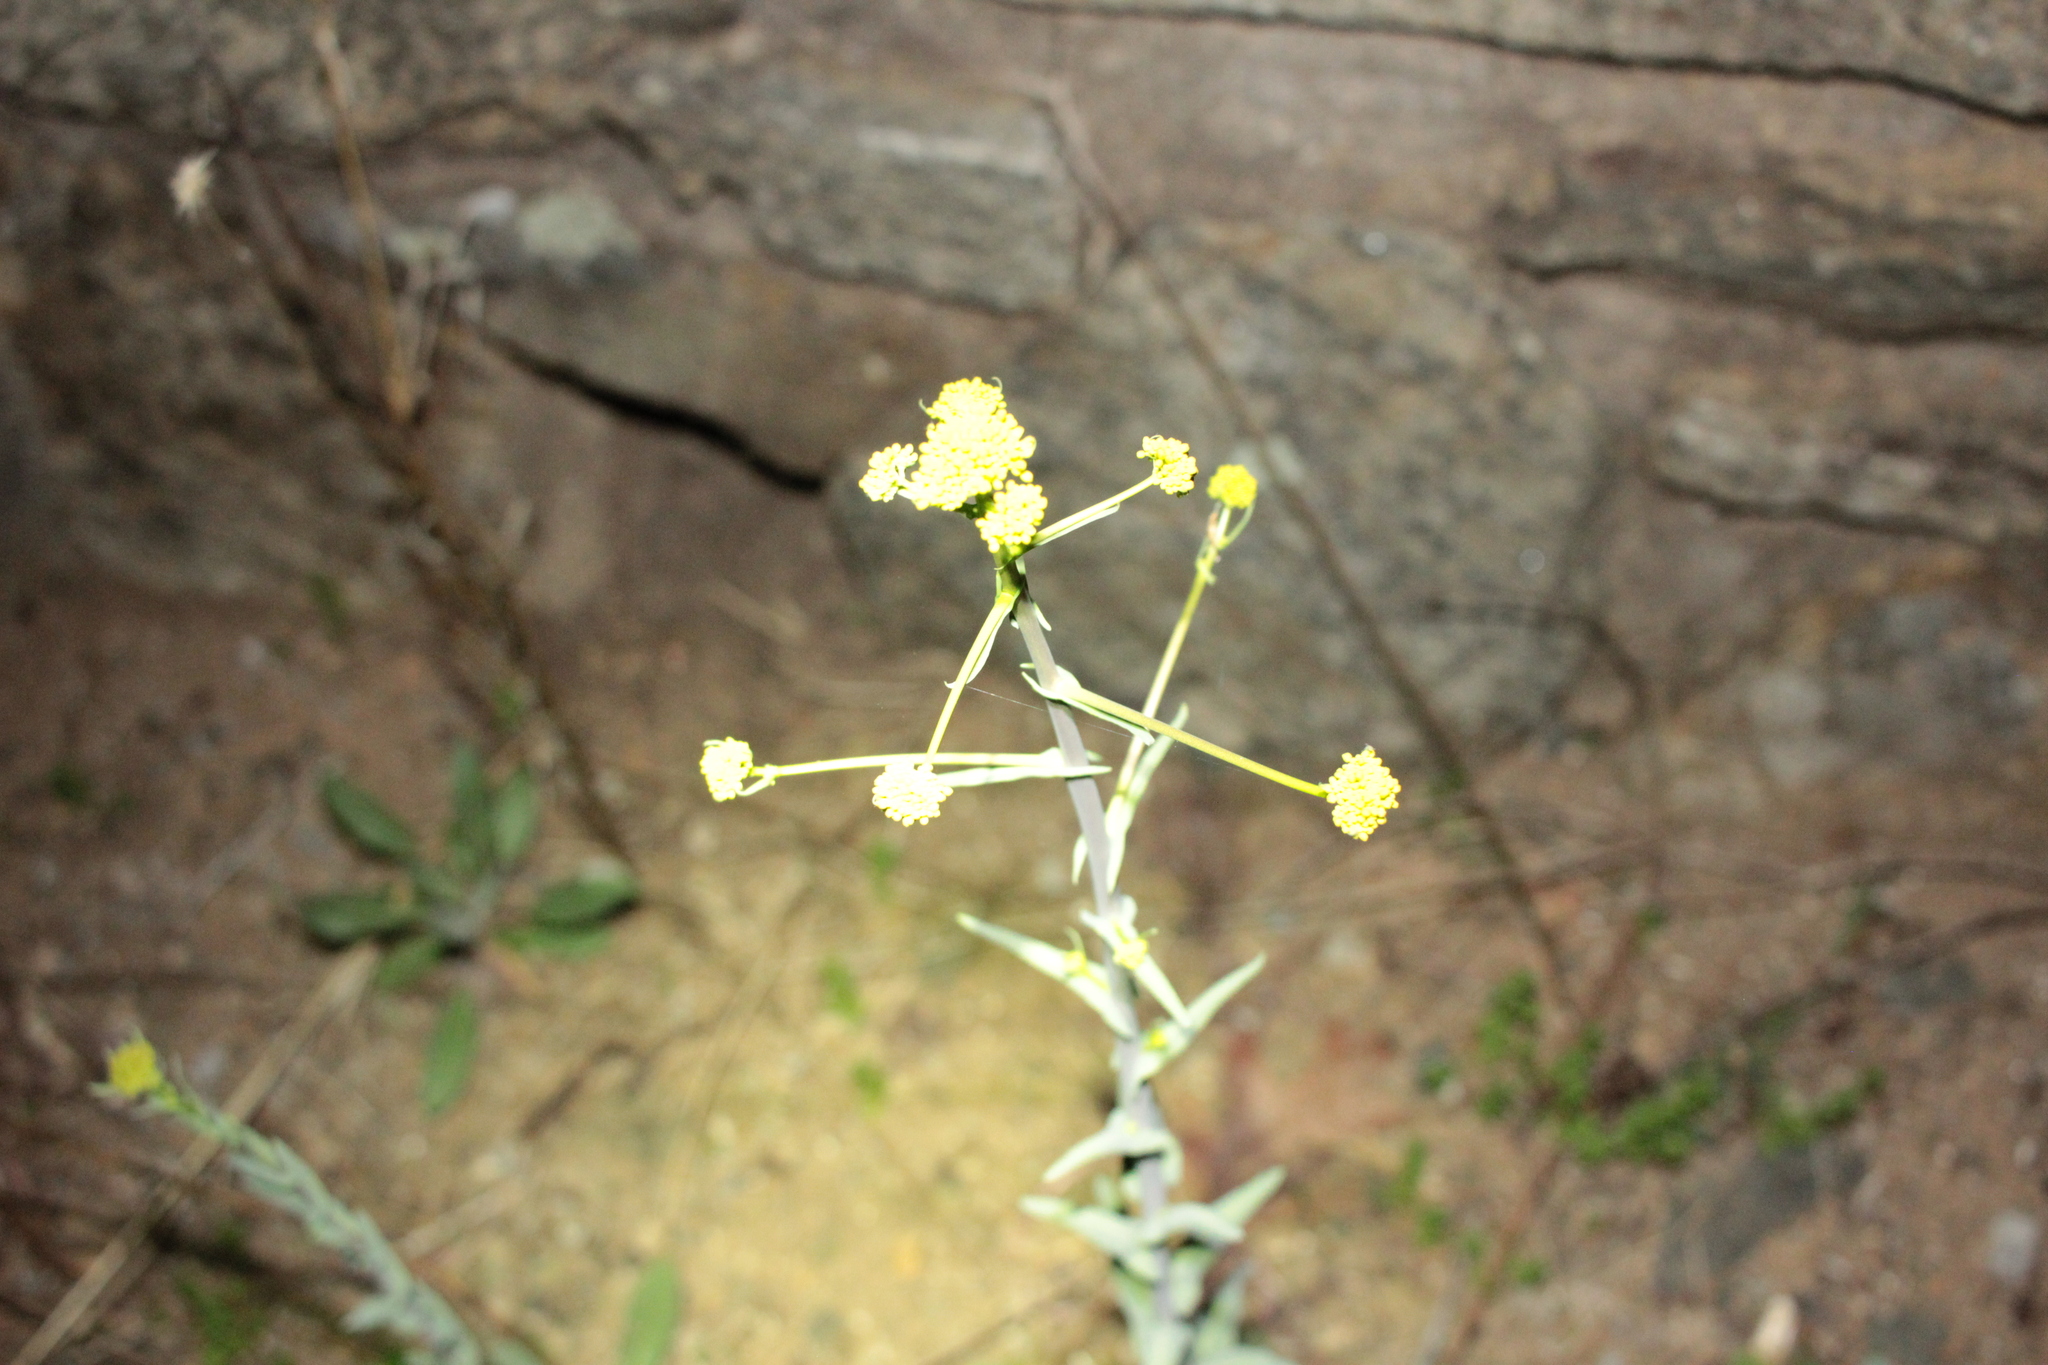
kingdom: Plantae
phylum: Tracheophyta
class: Magnoliopsida
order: Brassicales
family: Brassicaceae
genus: Isatis
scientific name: Isatis tinctoria
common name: Woad
